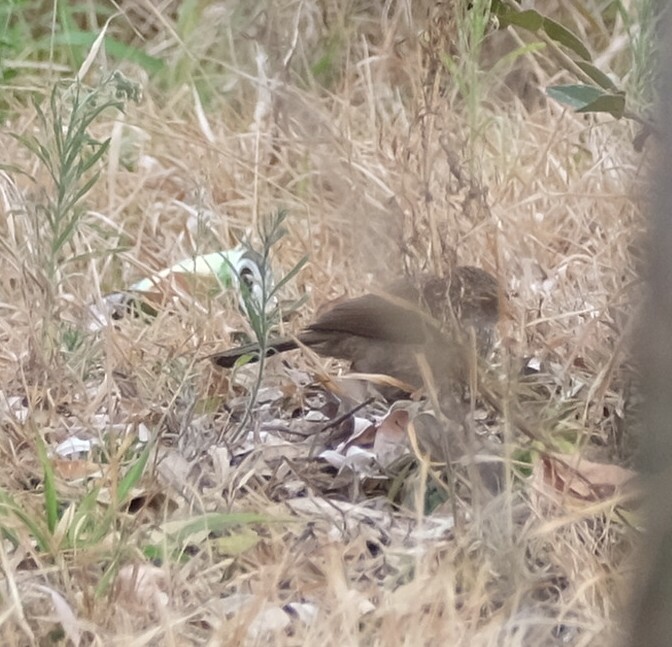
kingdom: Animalia
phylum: Chordata
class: Aves
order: Passeriformes
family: Leiothrichidae
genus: Turdoides
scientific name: Turdoides jardineii
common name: Arrow-marked babbler
